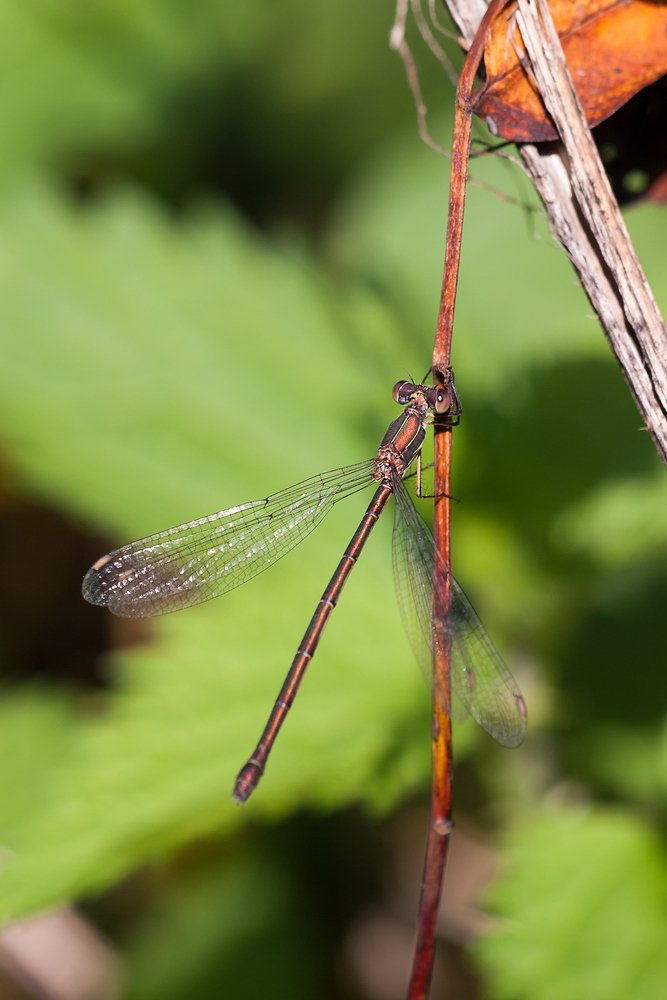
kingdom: Animalia
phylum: Arthropoda
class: Insecta
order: Odonata
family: Lestidae
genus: Chalcolestes
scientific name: Chalcolestes viridis
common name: Green emerald damselfly
